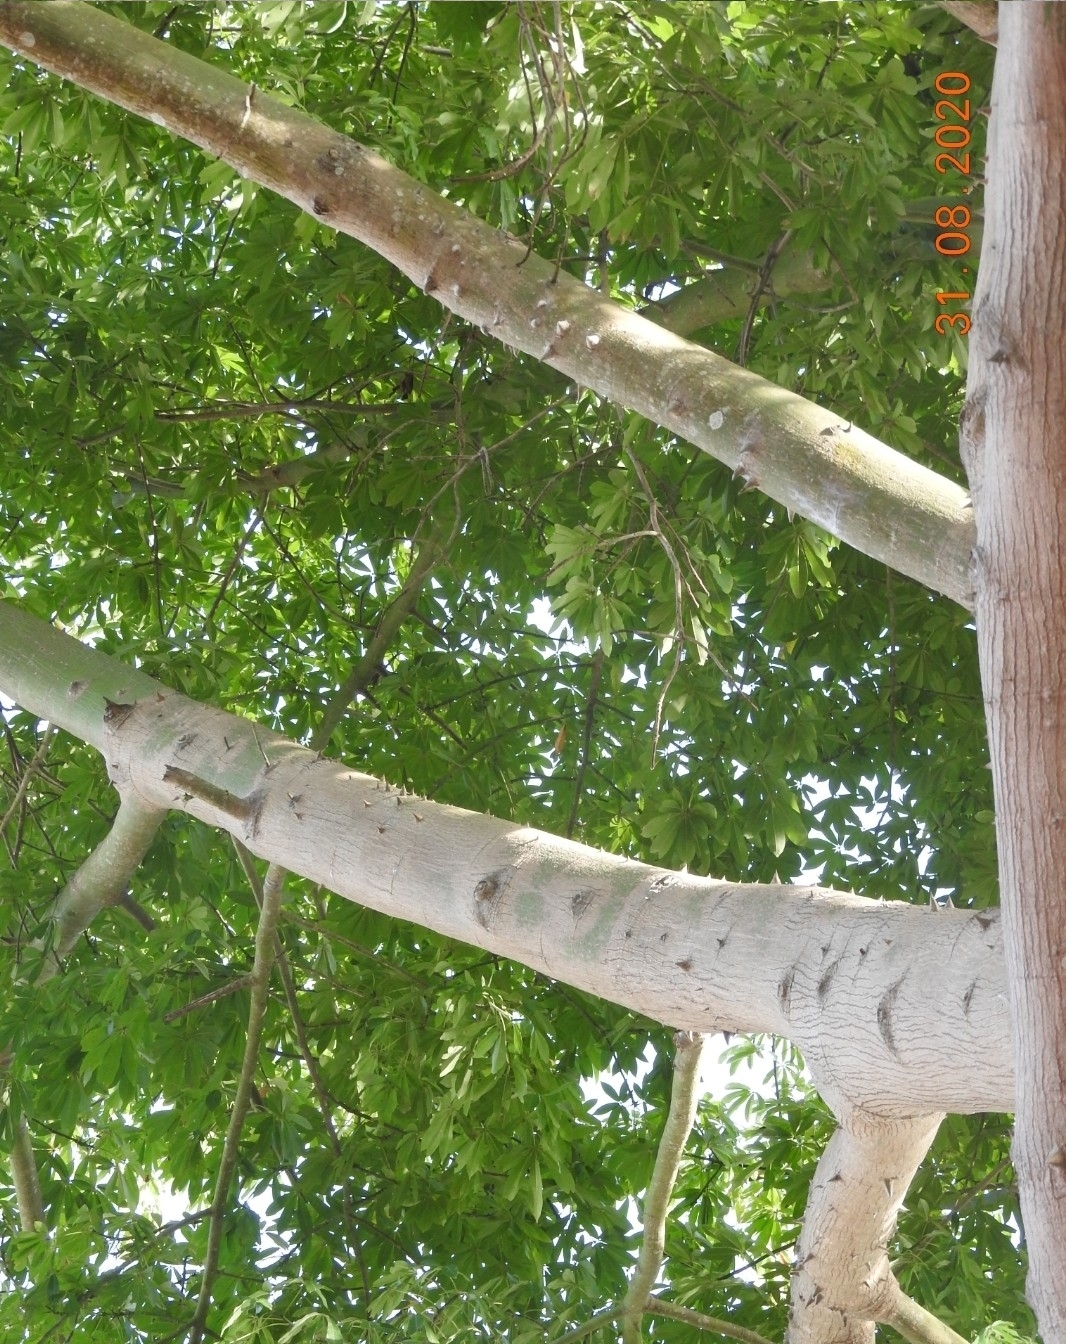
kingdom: Plantae
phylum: Tracheophyta
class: Magnoliopsida
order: Malvales
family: Malvaceae
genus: Ceiba
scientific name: Ceiba pentandra
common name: Kapok
